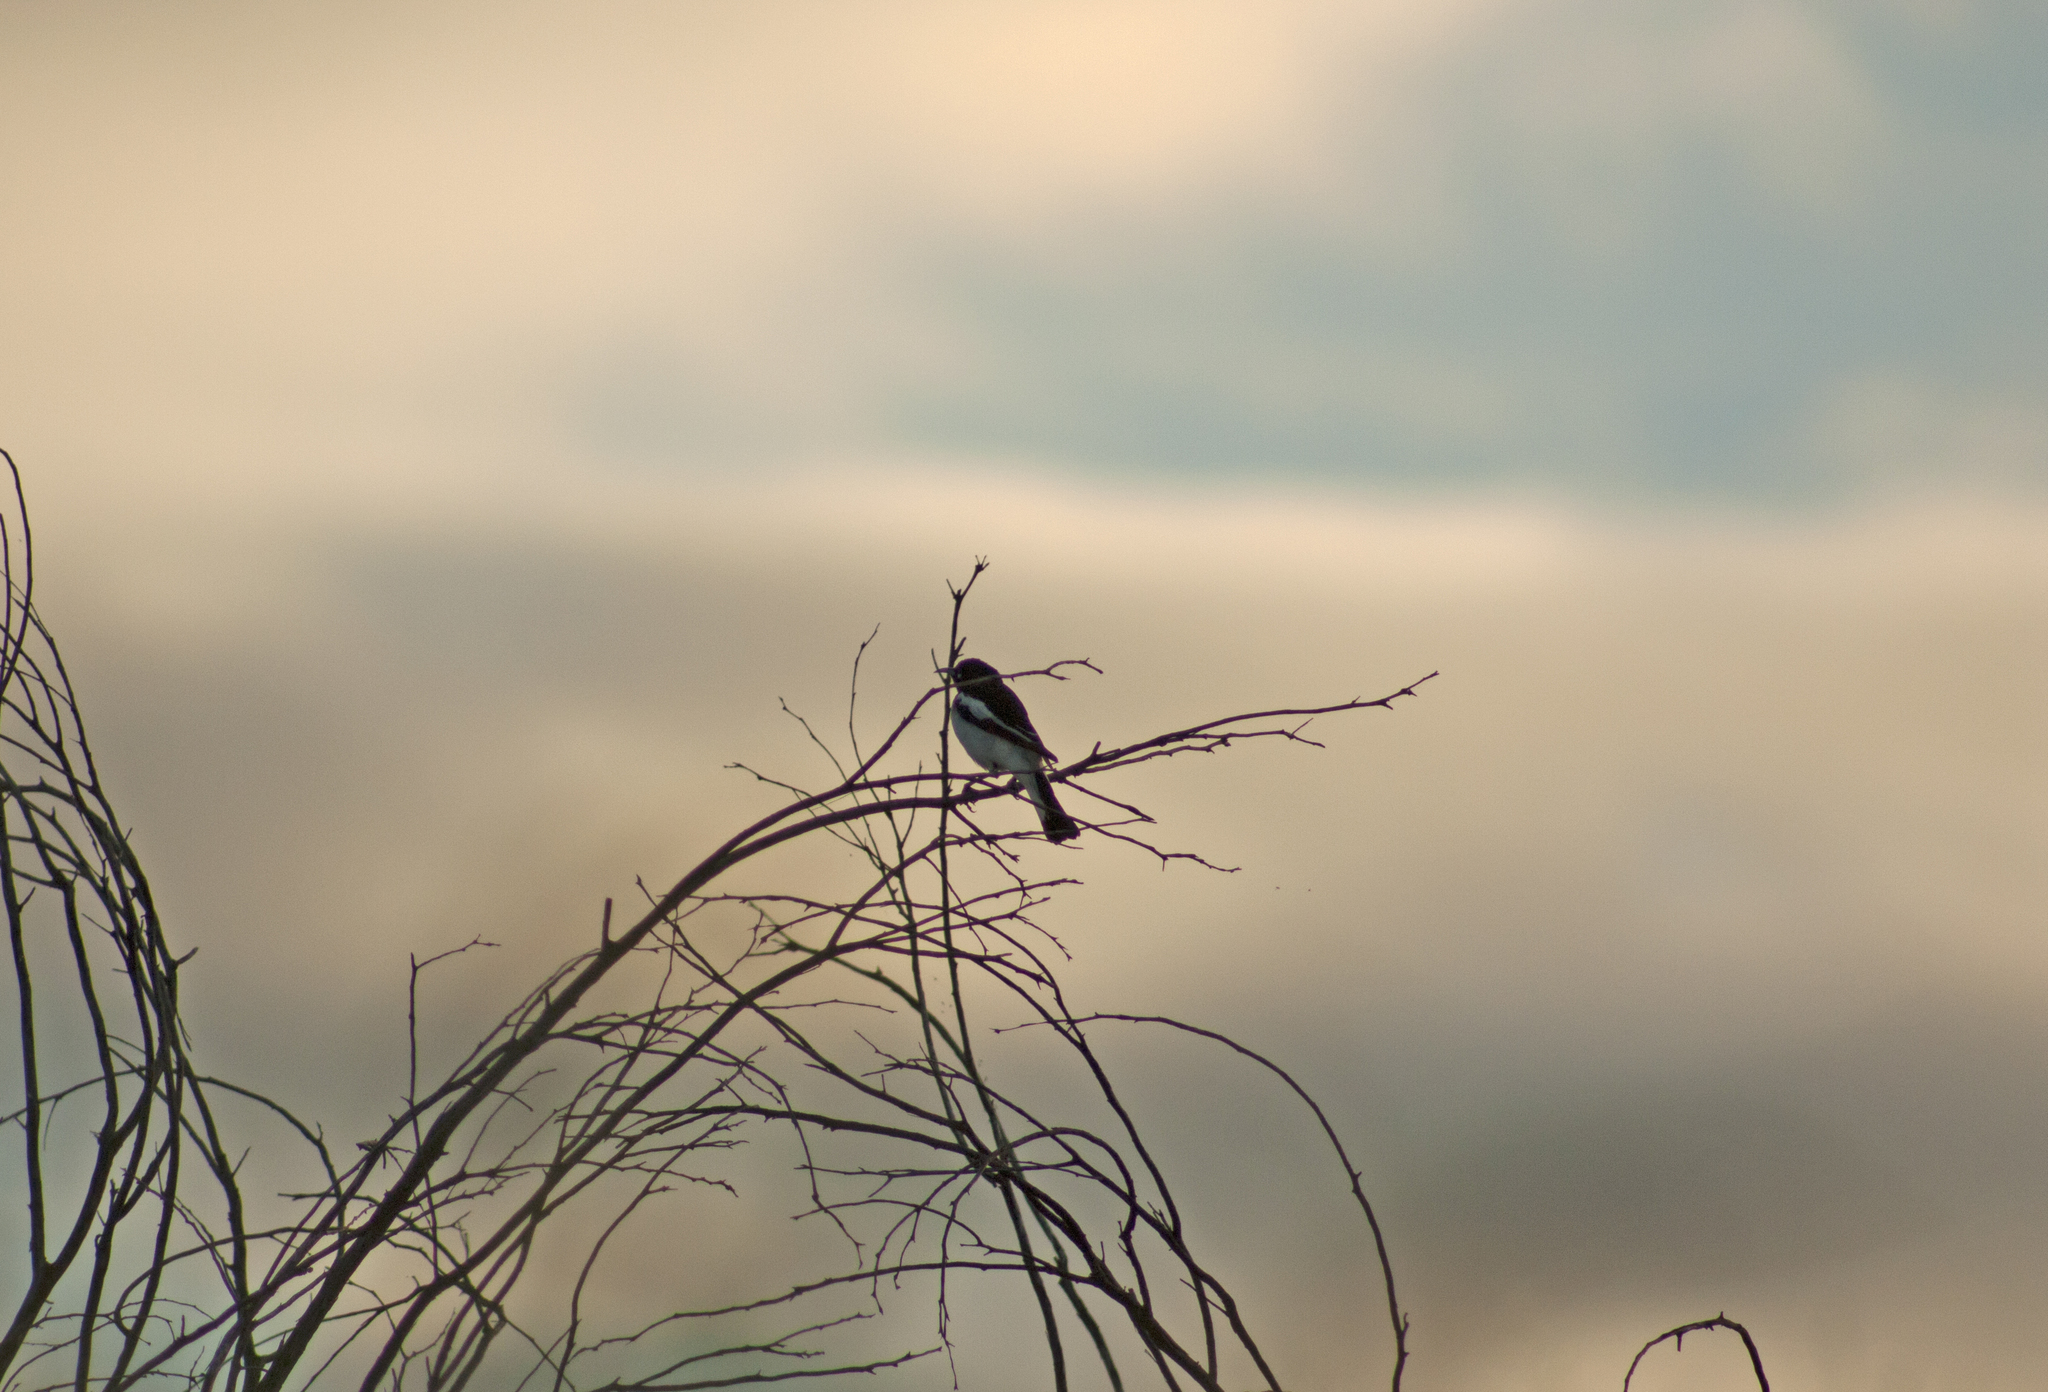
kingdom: Animalia
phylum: Chordata
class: Aves
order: Passeriformes
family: Meliphagidae
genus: Certhionyx
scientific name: Certhionyx variegatus
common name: Pied honeyeater
